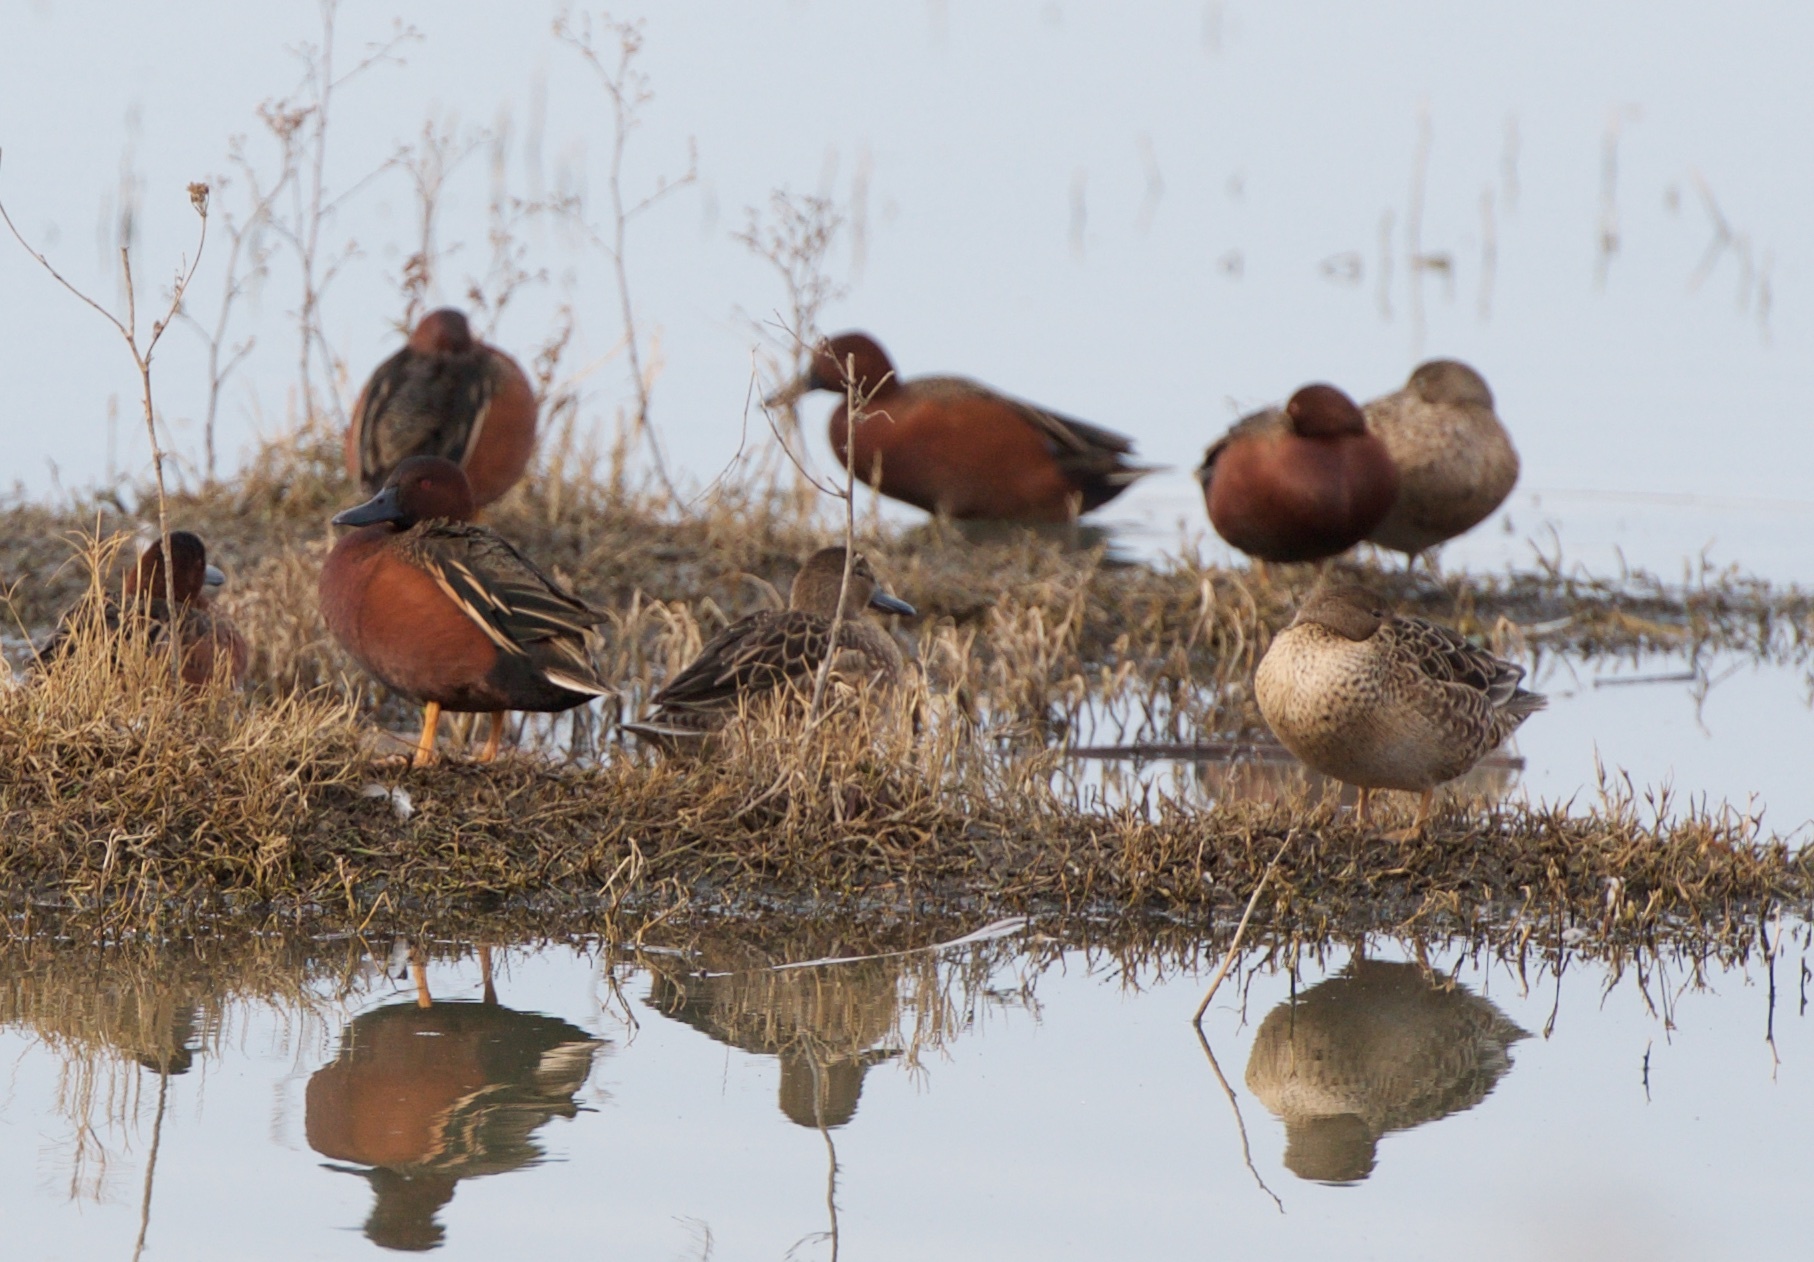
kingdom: Animalia
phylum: Chordata
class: Aves
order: Anseriformes
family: Anatidae
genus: Spatula
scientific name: Spatula cyanoptera
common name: Cinnamon teal
